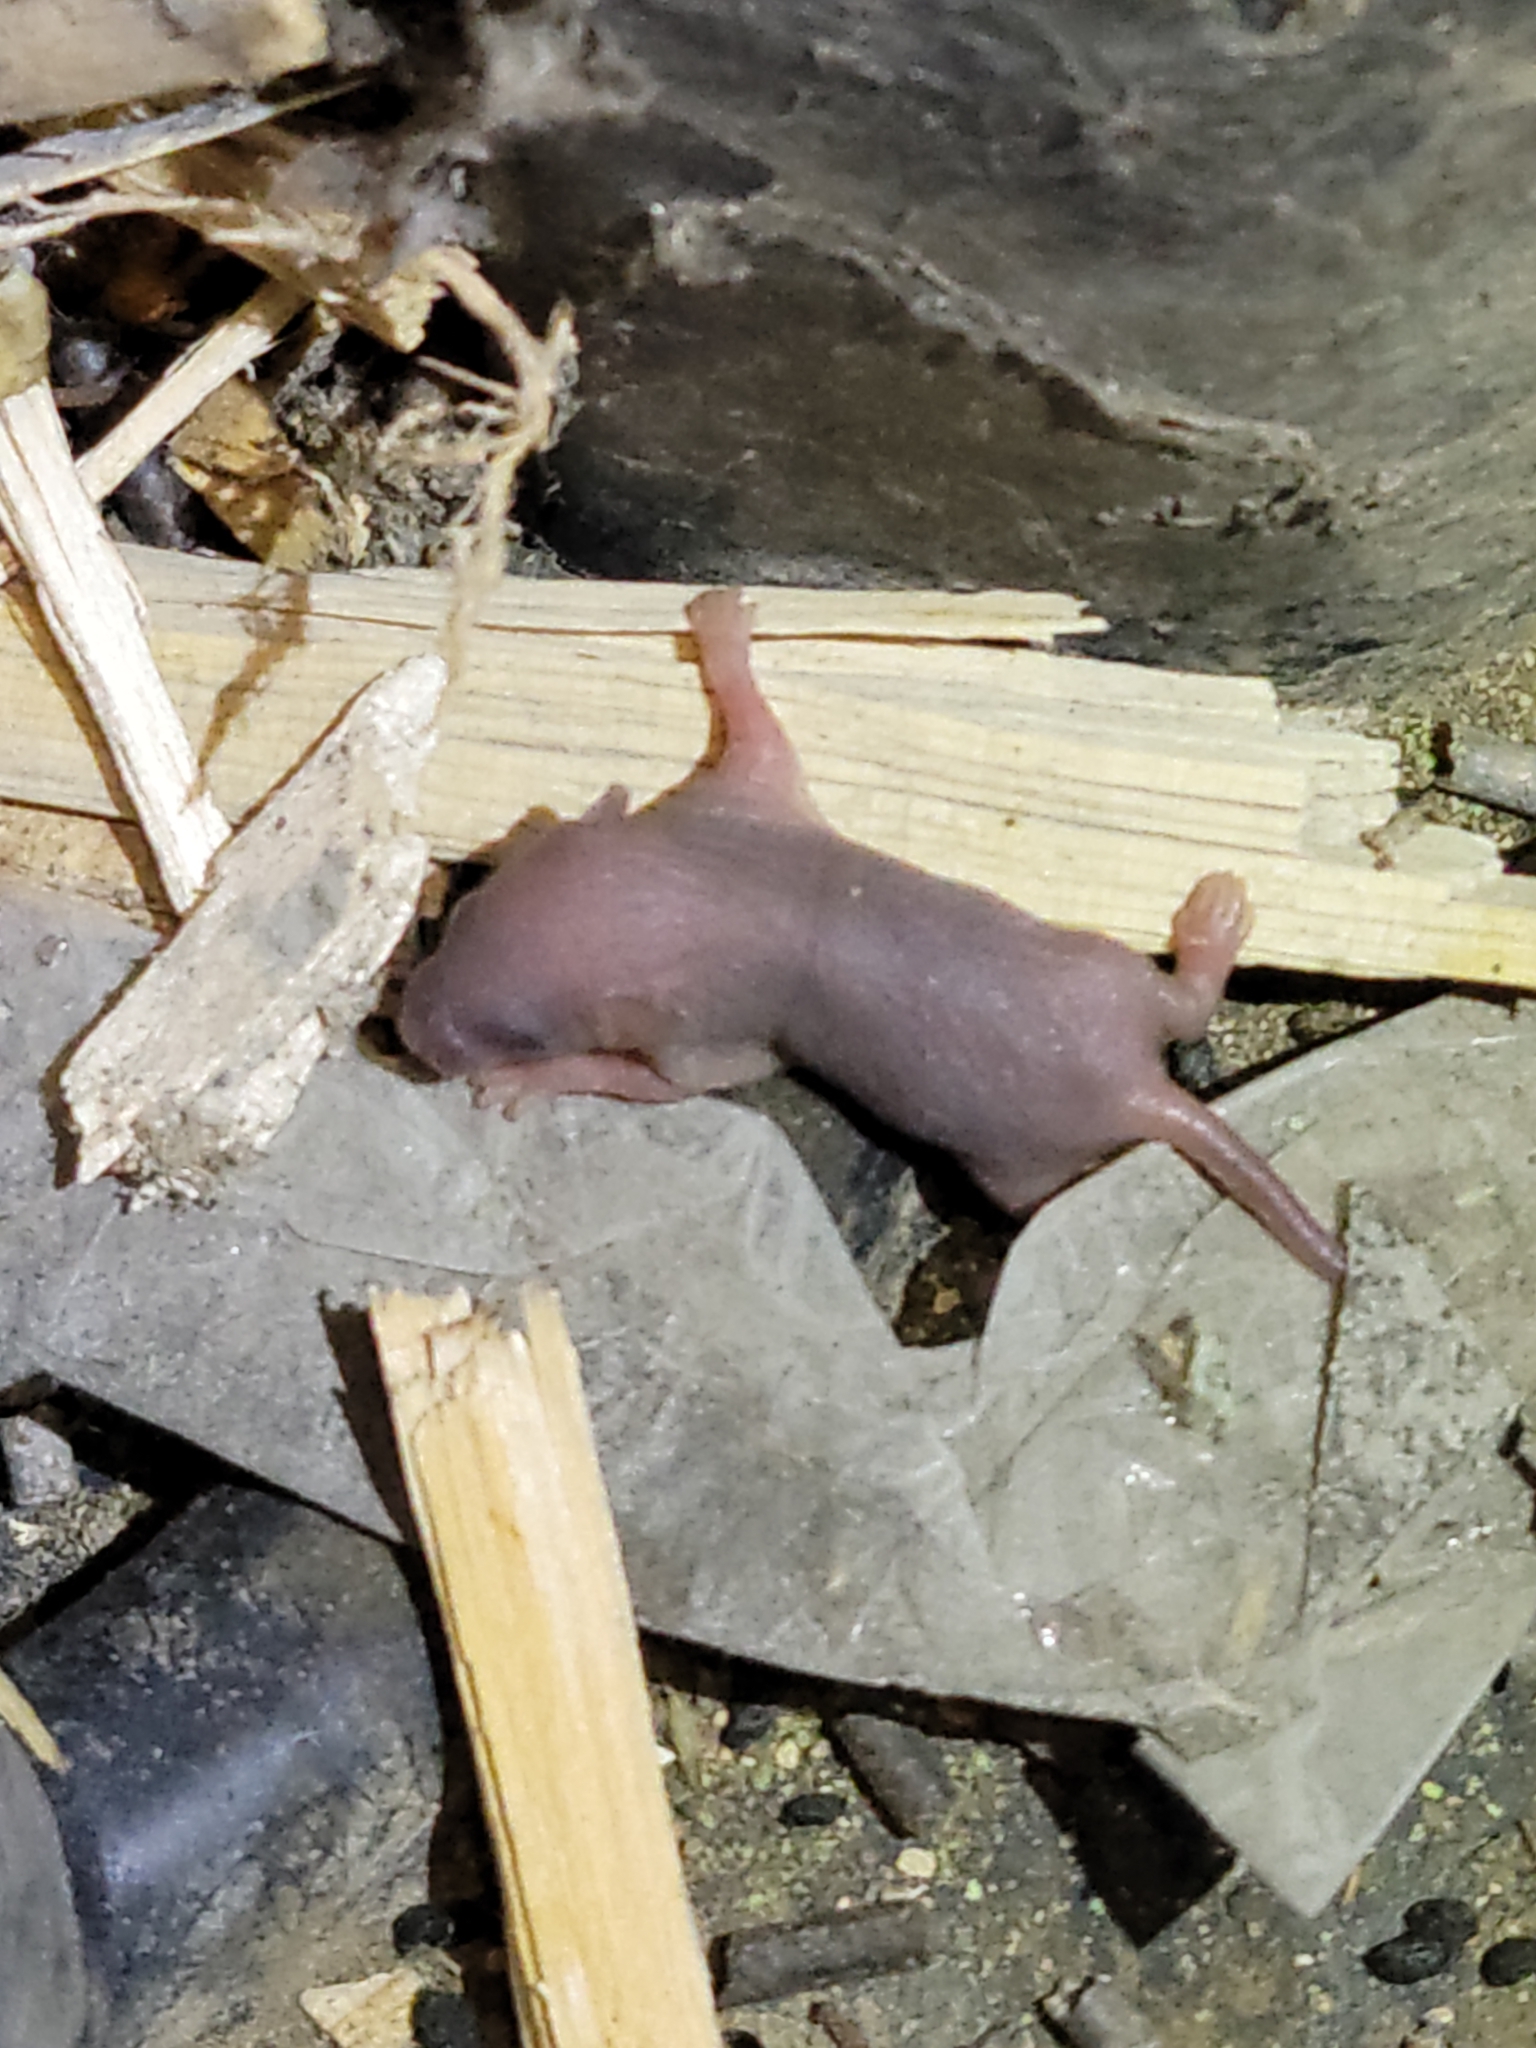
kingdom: Animalia
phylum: Chordata
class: Mammalia
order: Rodentia
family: Muridae
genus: Mus
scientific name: Mus musculus
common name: House mouse
